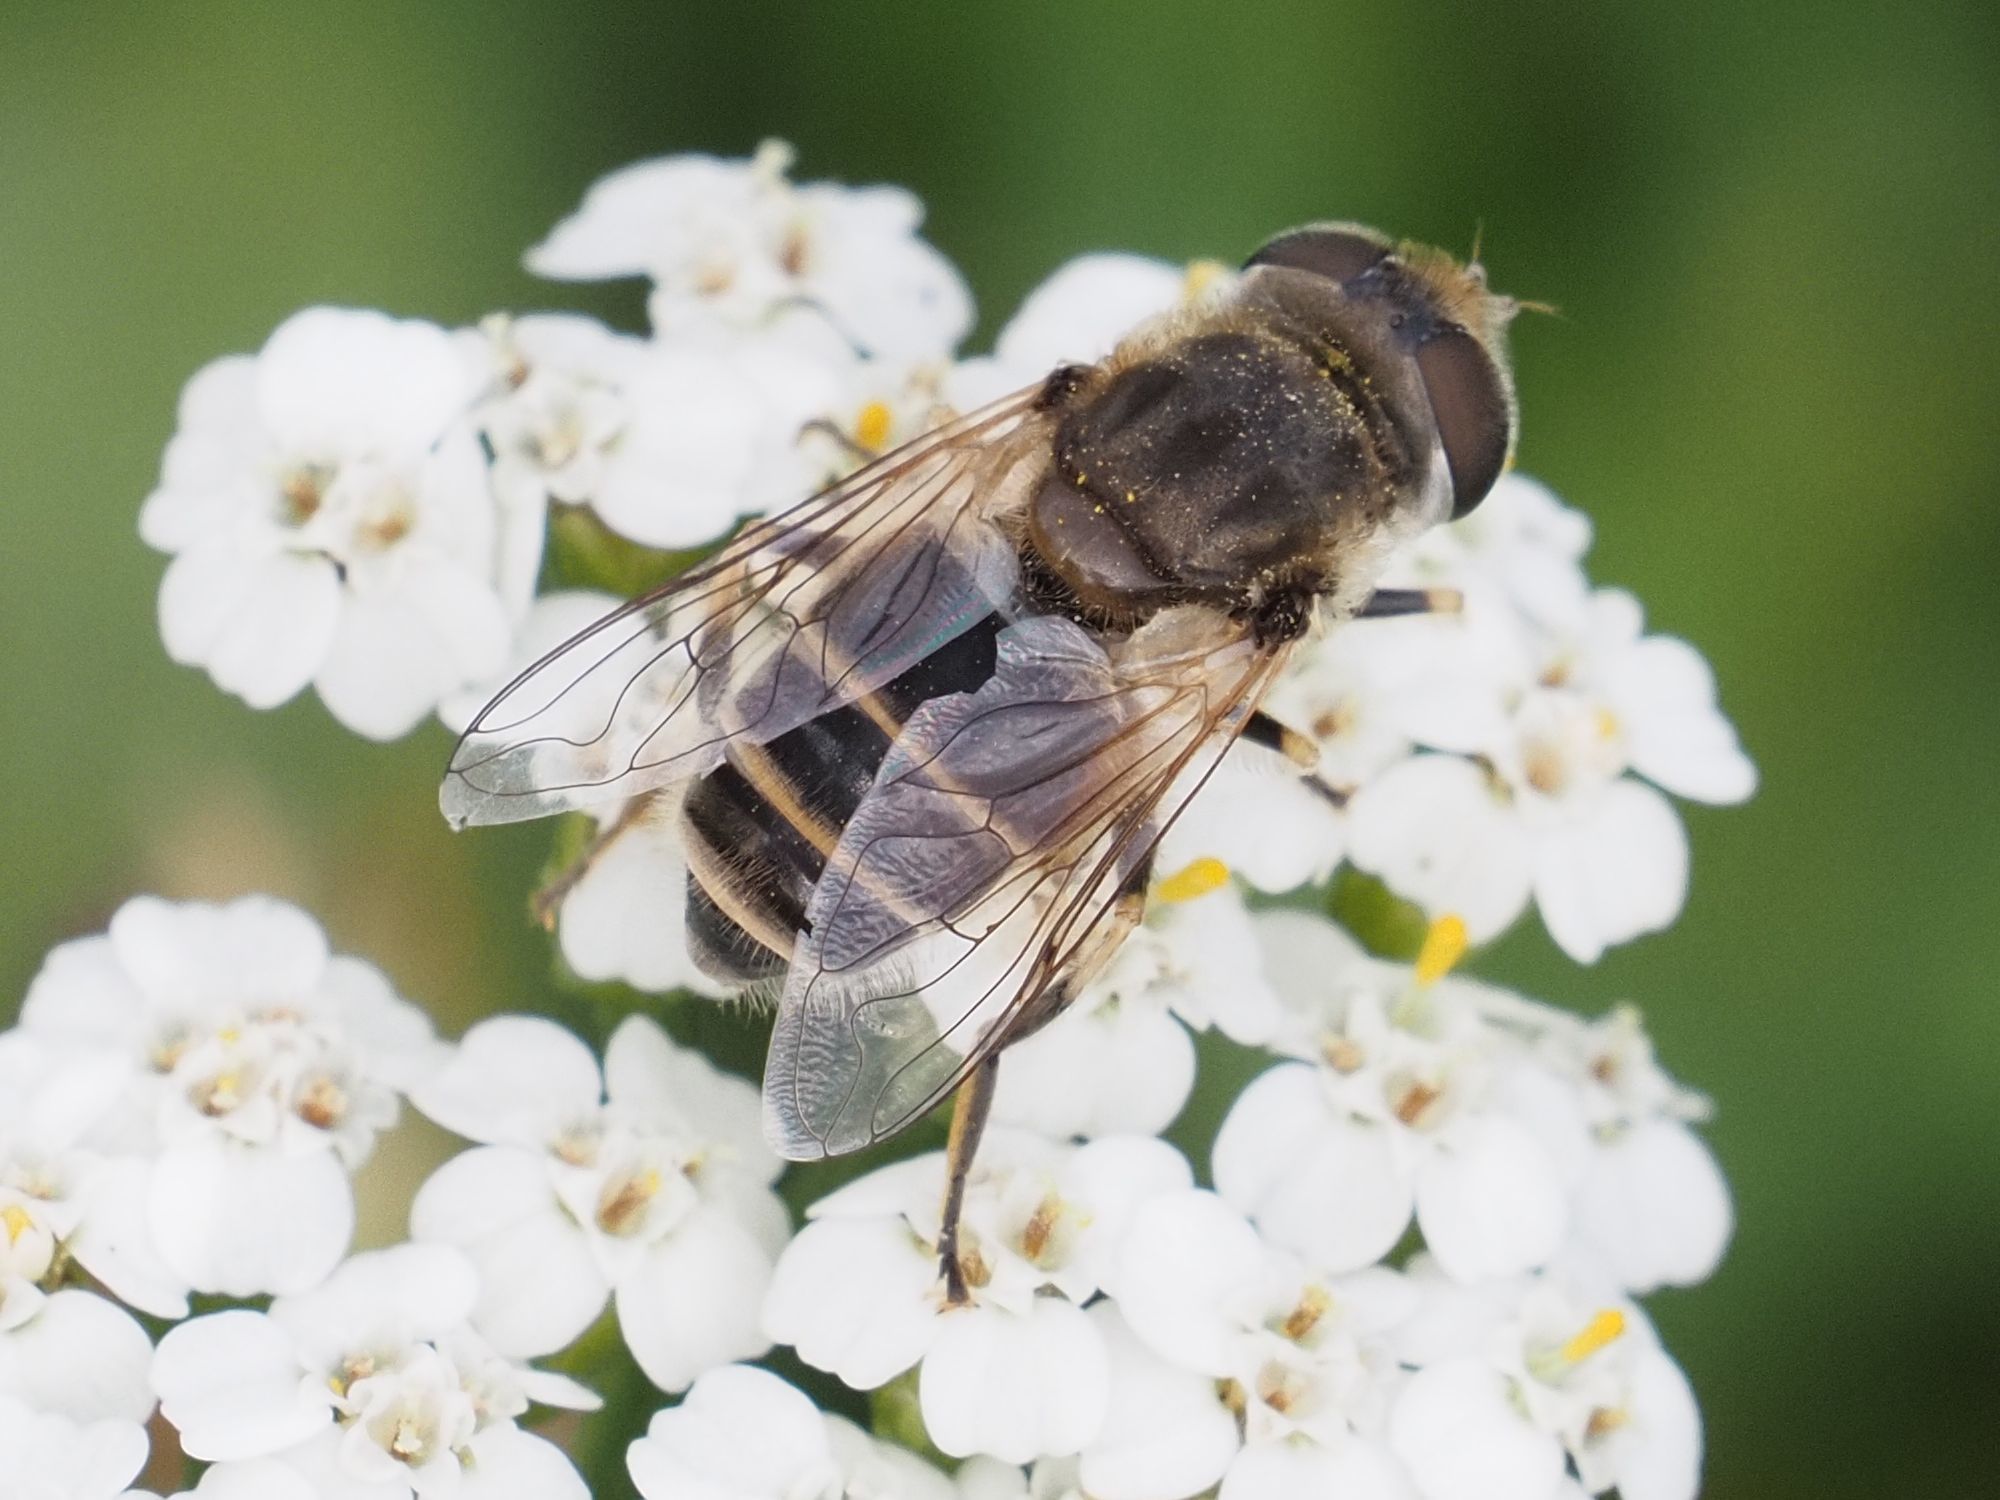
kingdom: Animalia
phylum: Arthropoda
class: Insecta
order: Diptera
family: Syrphidae
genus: Eristalis
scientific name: Eristalis arbustorum
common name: Hover fly
